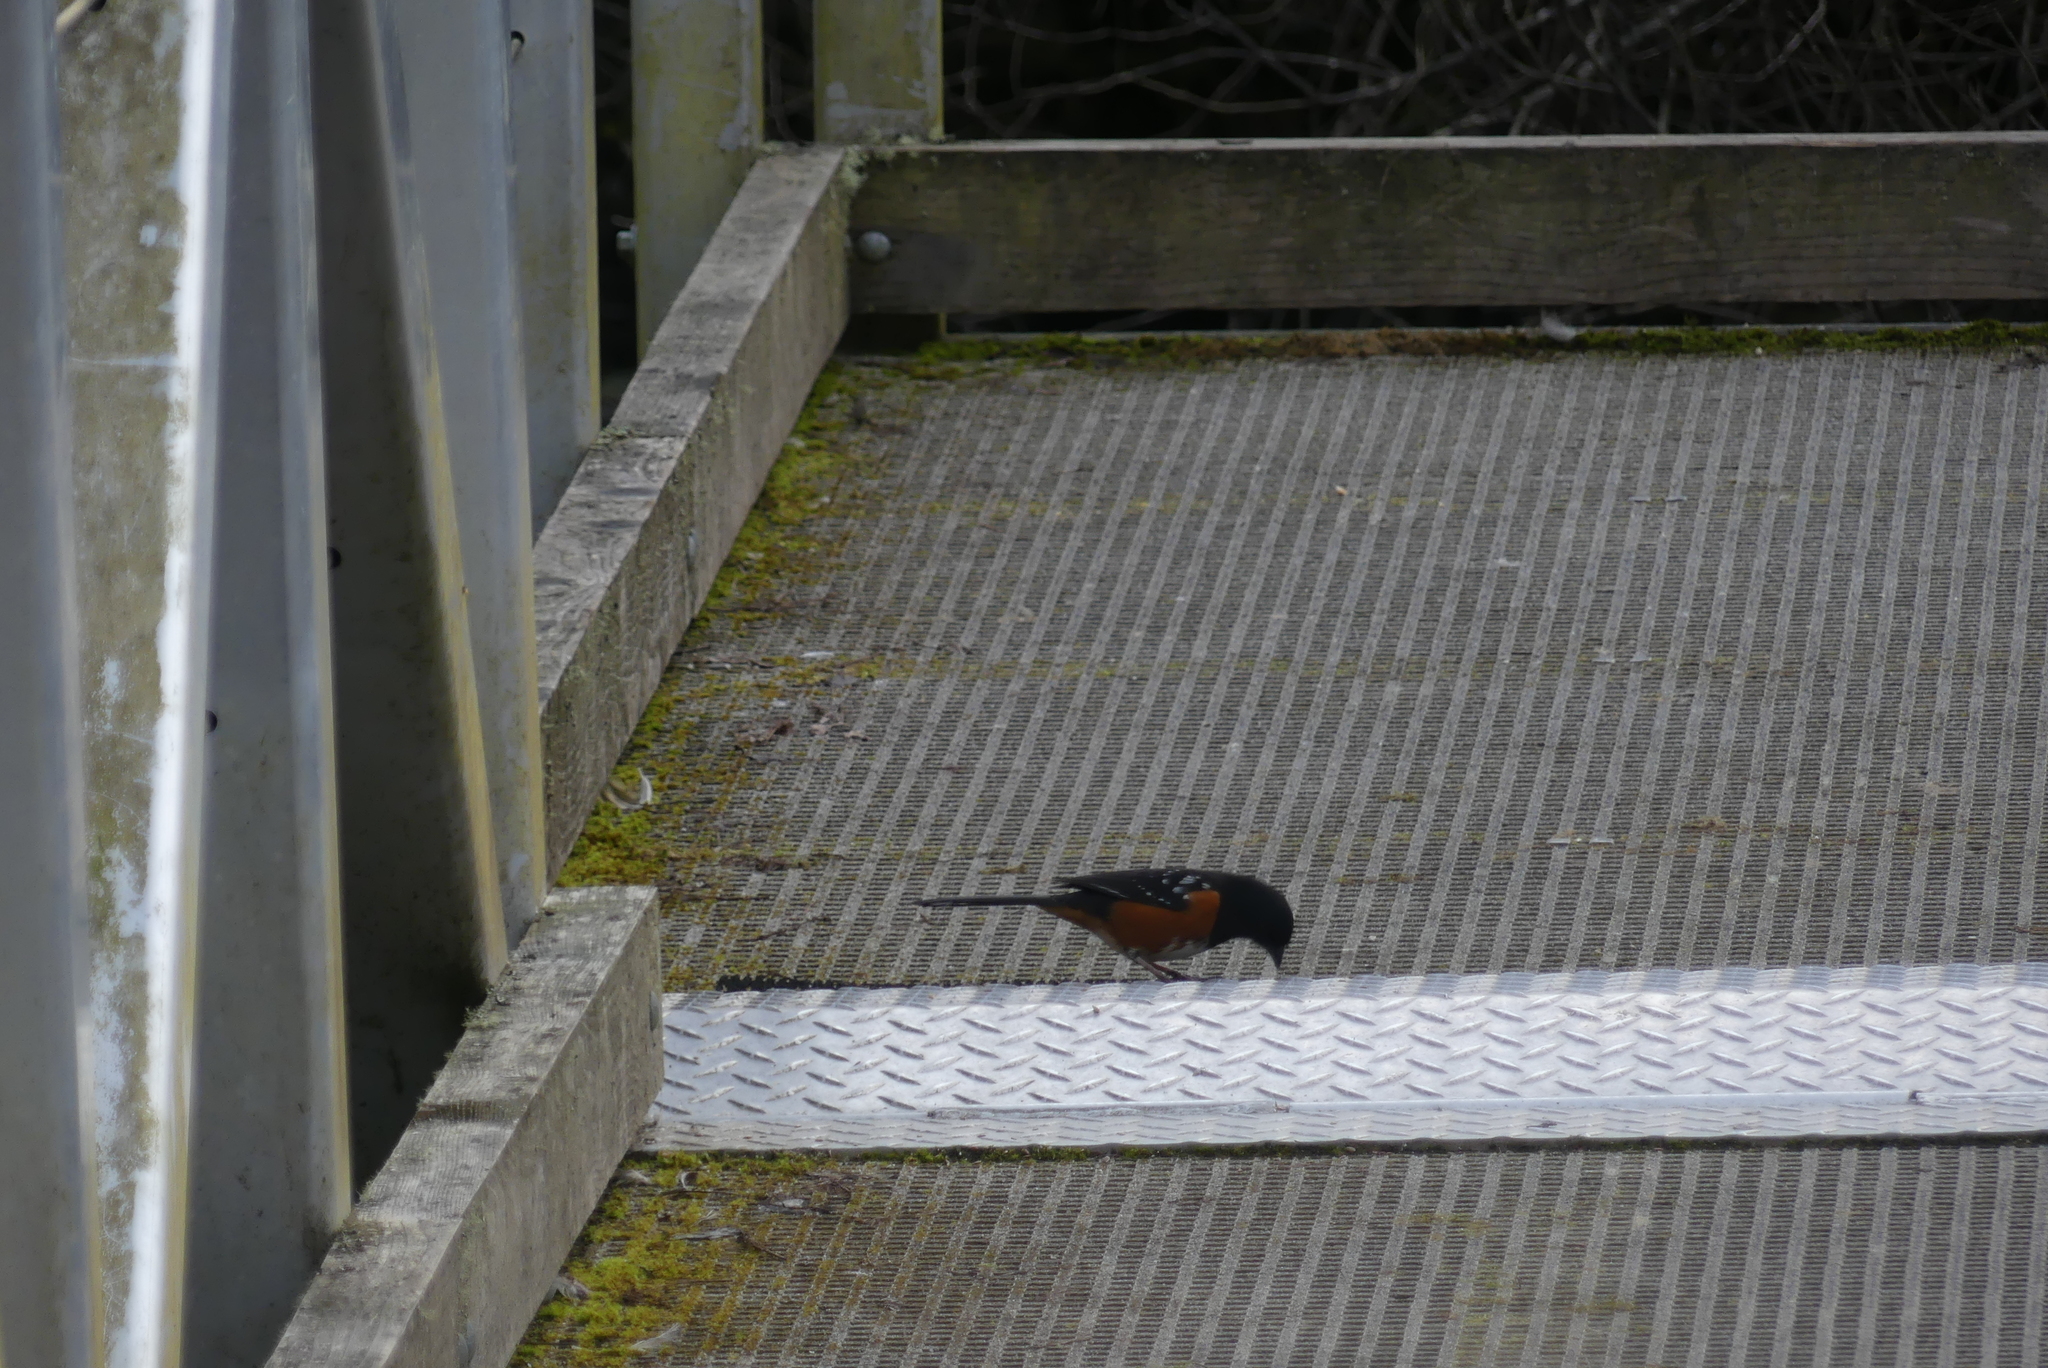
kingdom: Animalia
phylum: Chordata
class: Aves
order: Passeriformes
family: Passerellidae
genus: Pipilo
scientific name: Pipilo maculatus
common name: Spotted towhee
